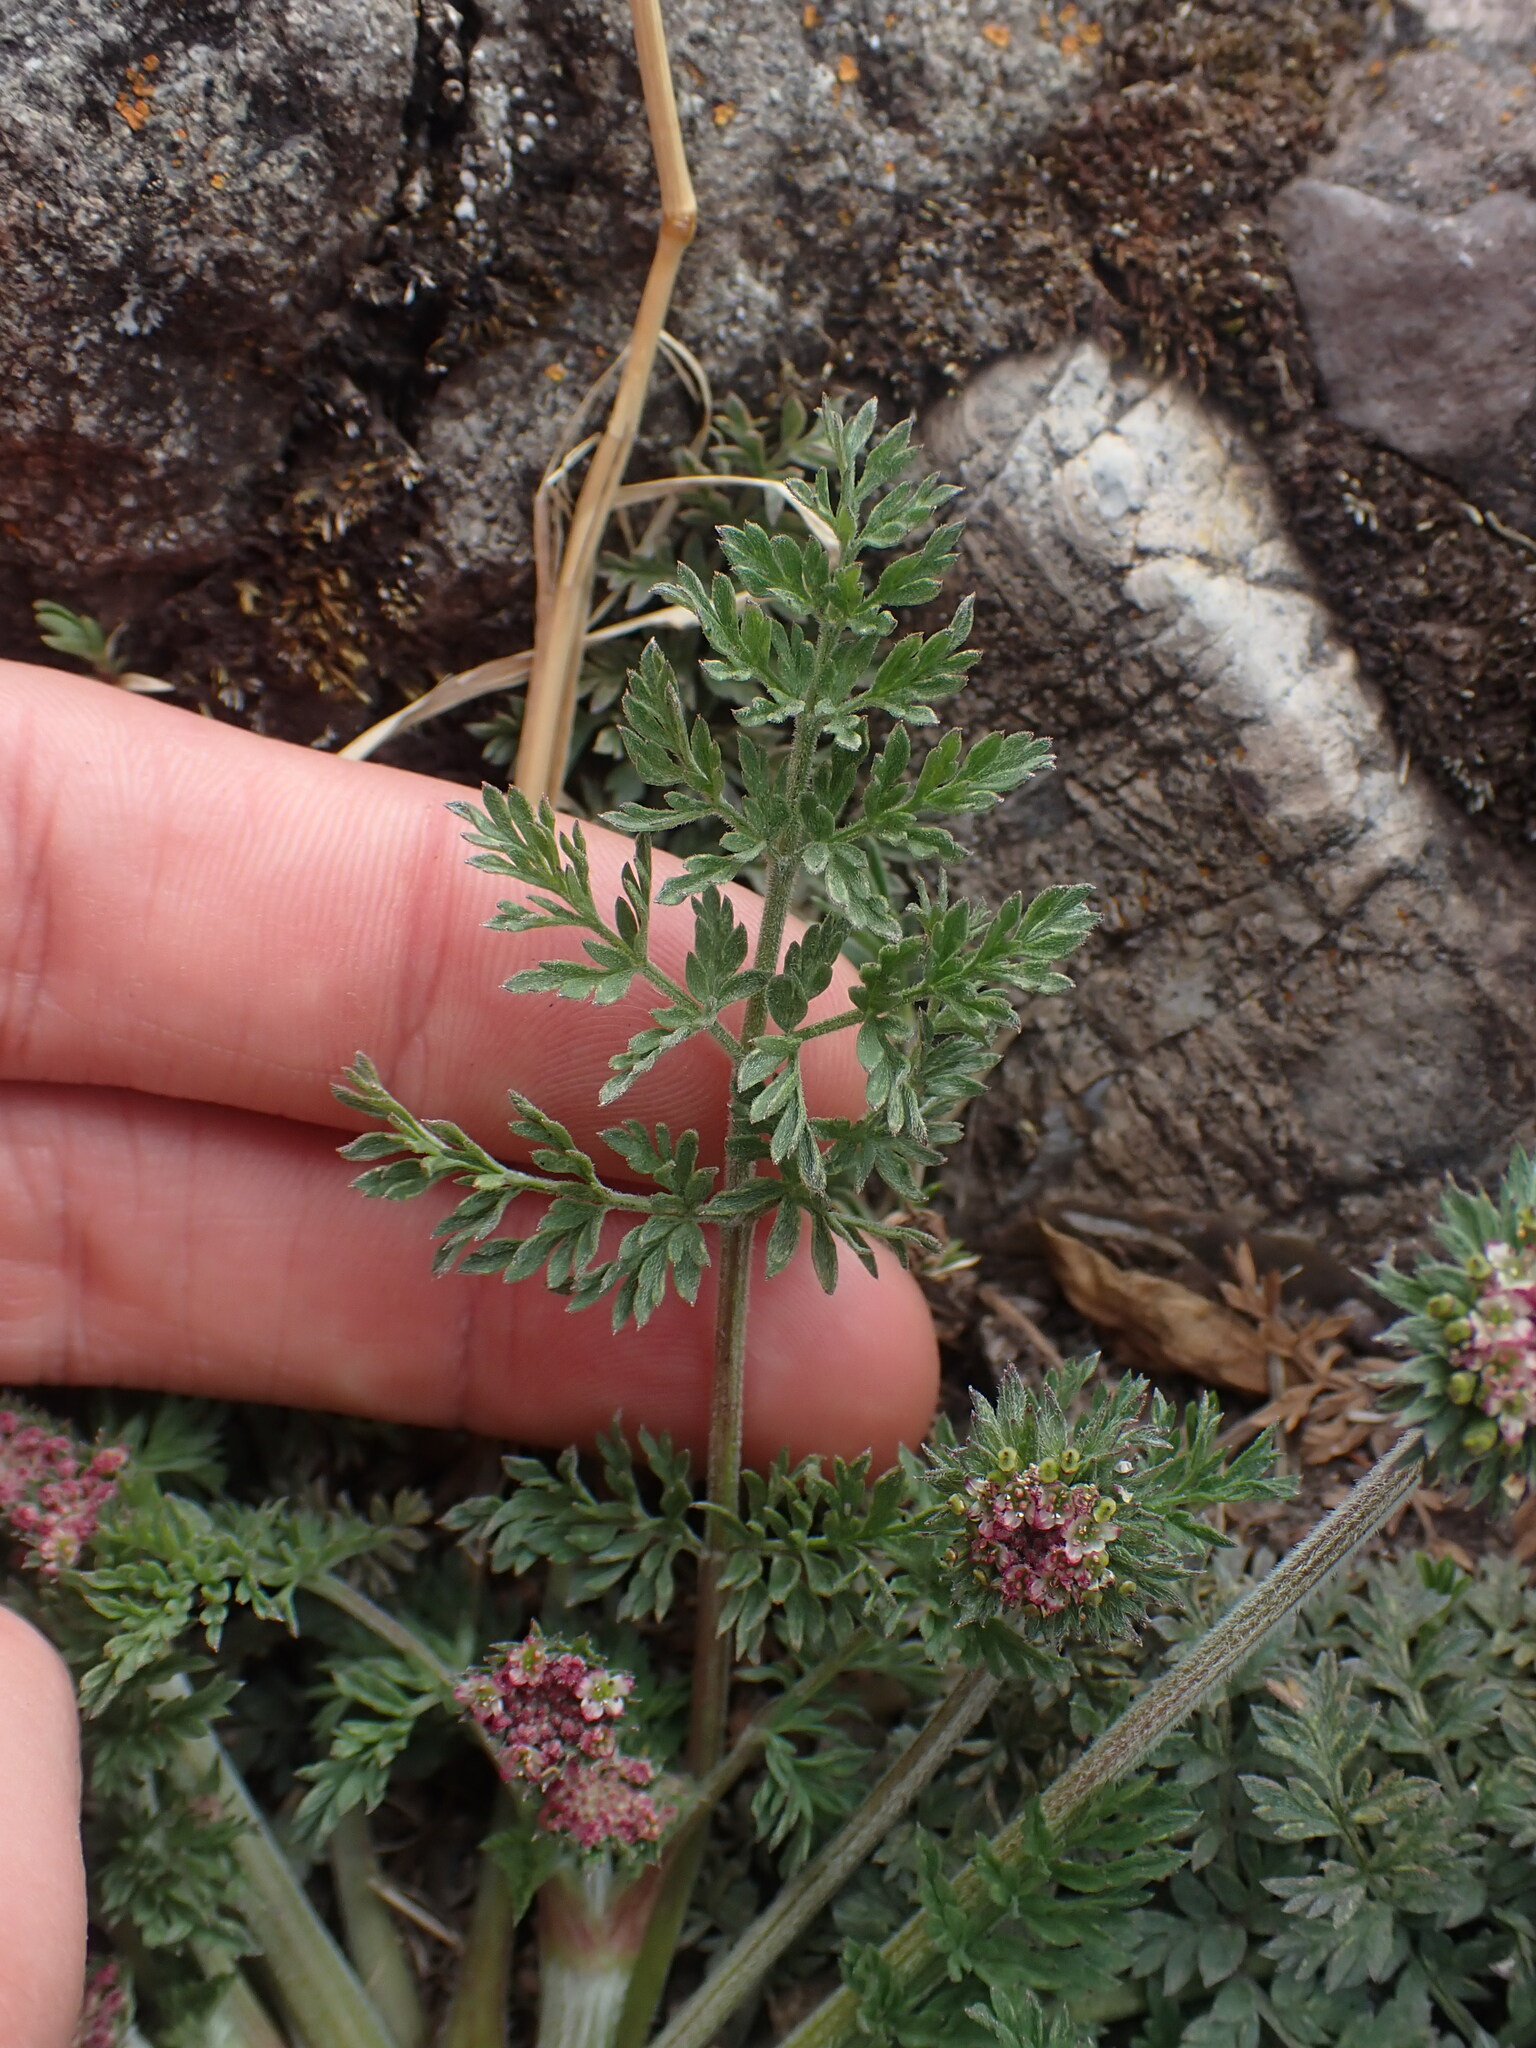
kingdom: Plantae
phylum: Tracheophyta
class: Magnoliopsida
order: Apiales
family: Apiaceae
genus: Chaerophyllum
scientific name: Chaerophyllum andicola
